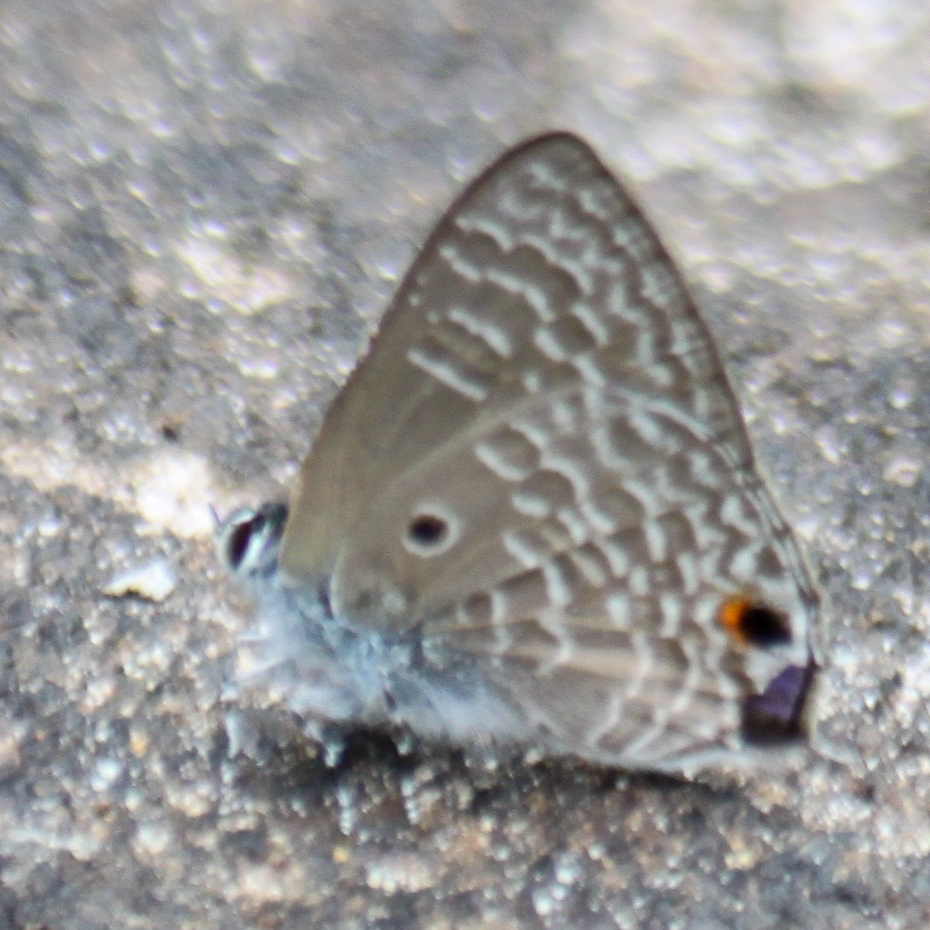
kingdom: Animalia
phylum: Arthropoda
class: Insecta
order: Lepidoptera
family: Lycaenidae
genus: Anthene
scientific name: Anthene lycaenina
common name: Pointed ciliate blue
